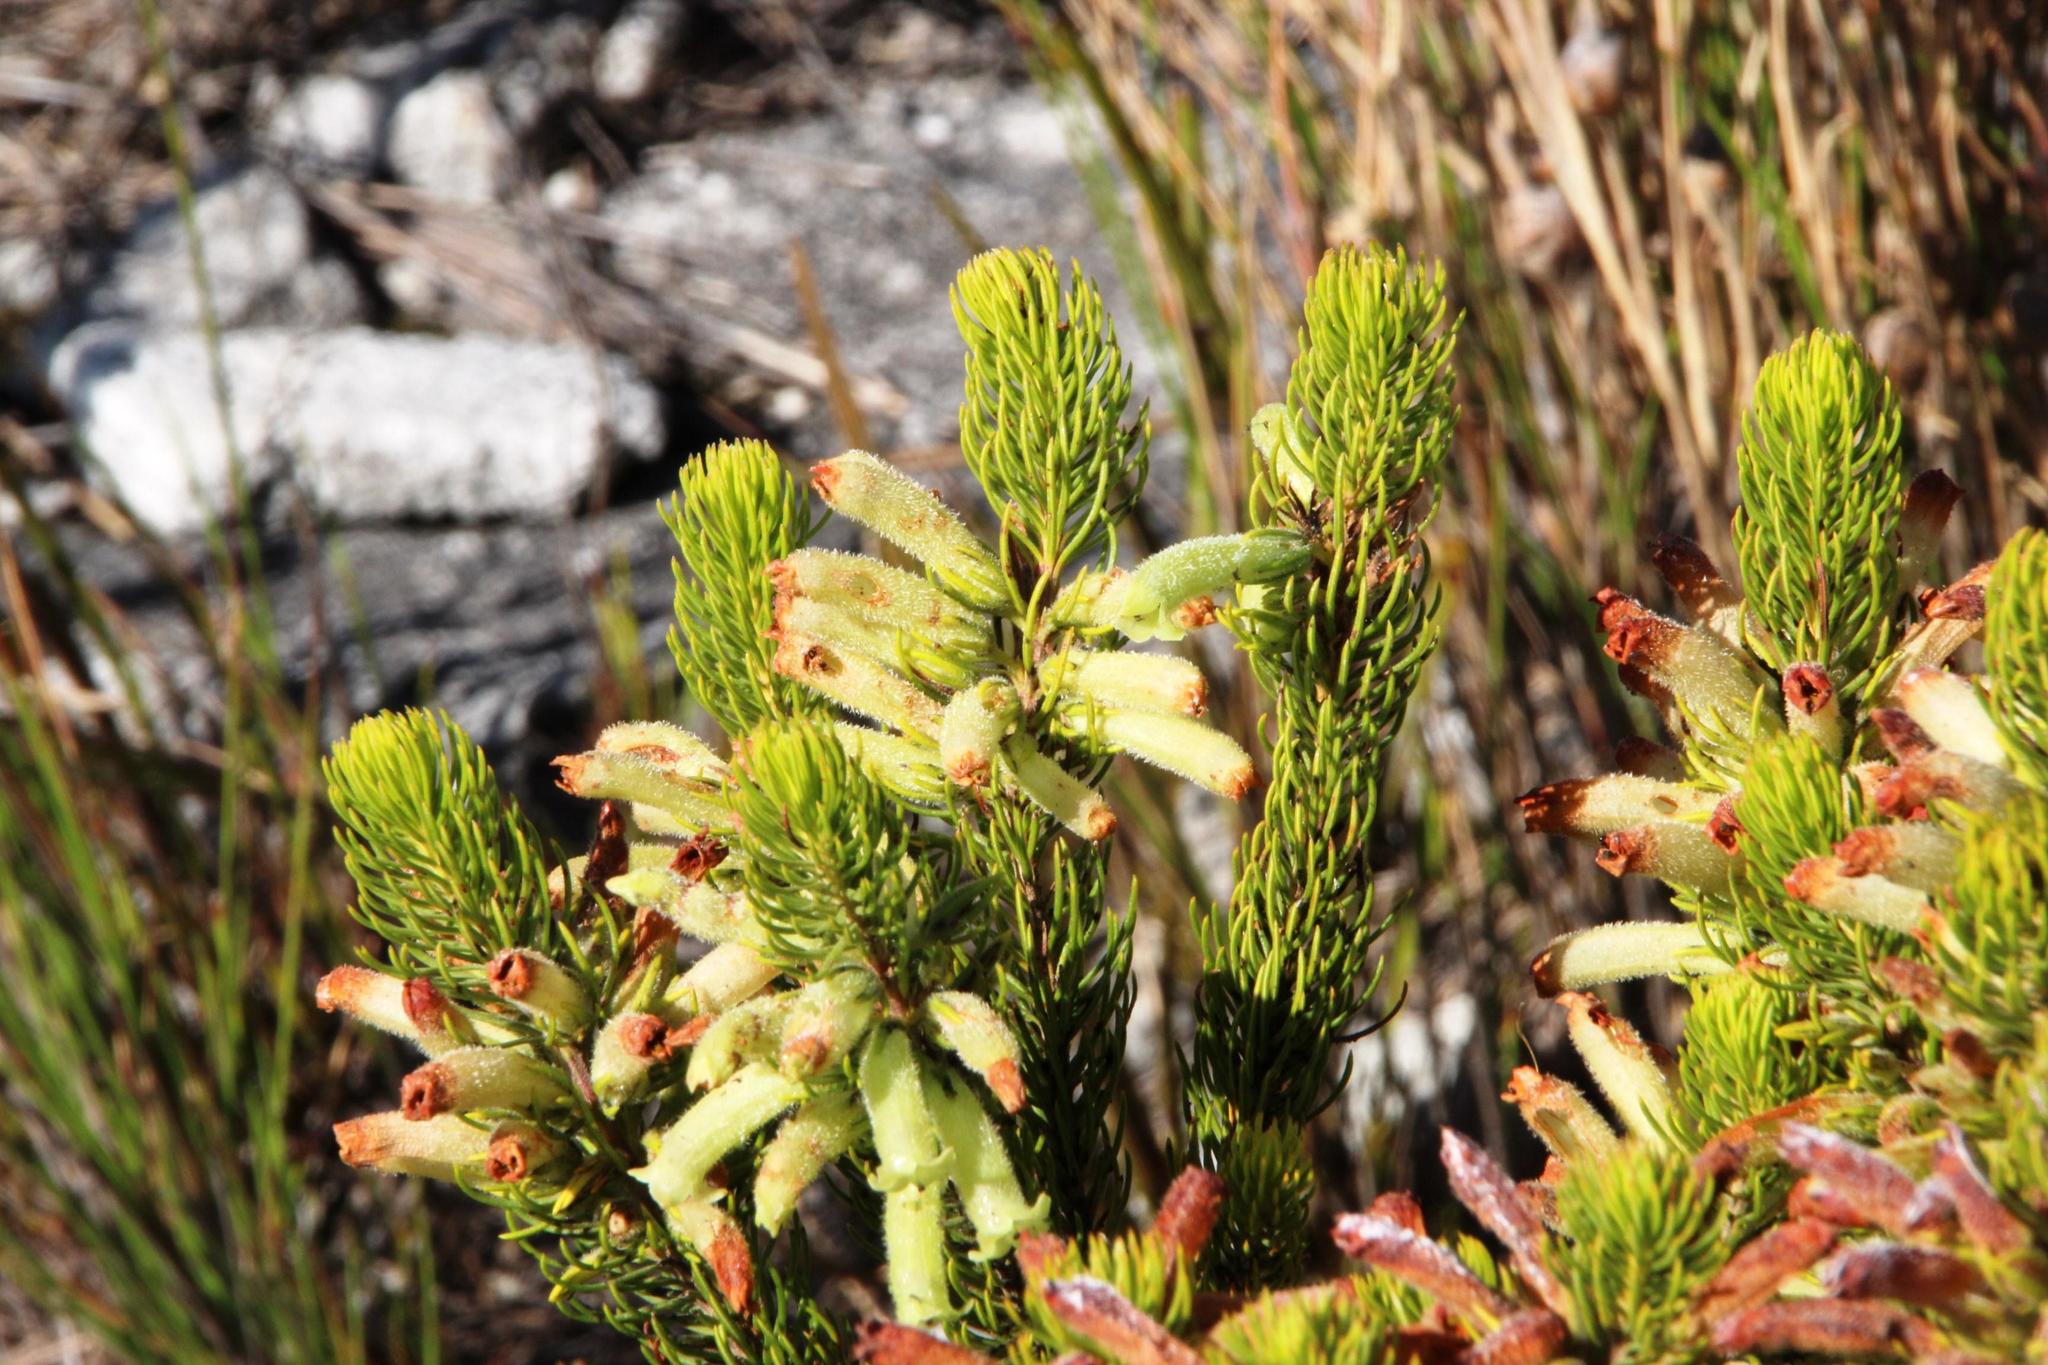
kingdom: Plantae
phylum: Tracheophyta
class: Magnoliopsida
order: Ericales
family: Ericaceae
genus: Erica
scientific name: Erica viscaria
